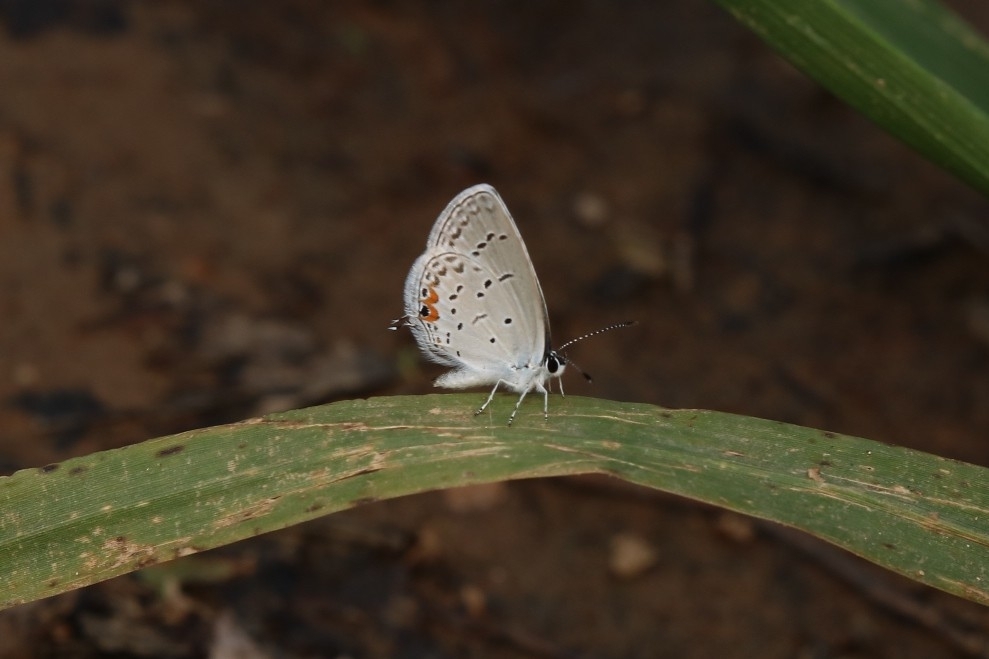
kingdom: Animalia
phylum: Arthropoda
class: Insecta
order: Lepidoptera
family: Lycaenidae
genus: Elkalyce
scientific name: Elkalyce comyntas
